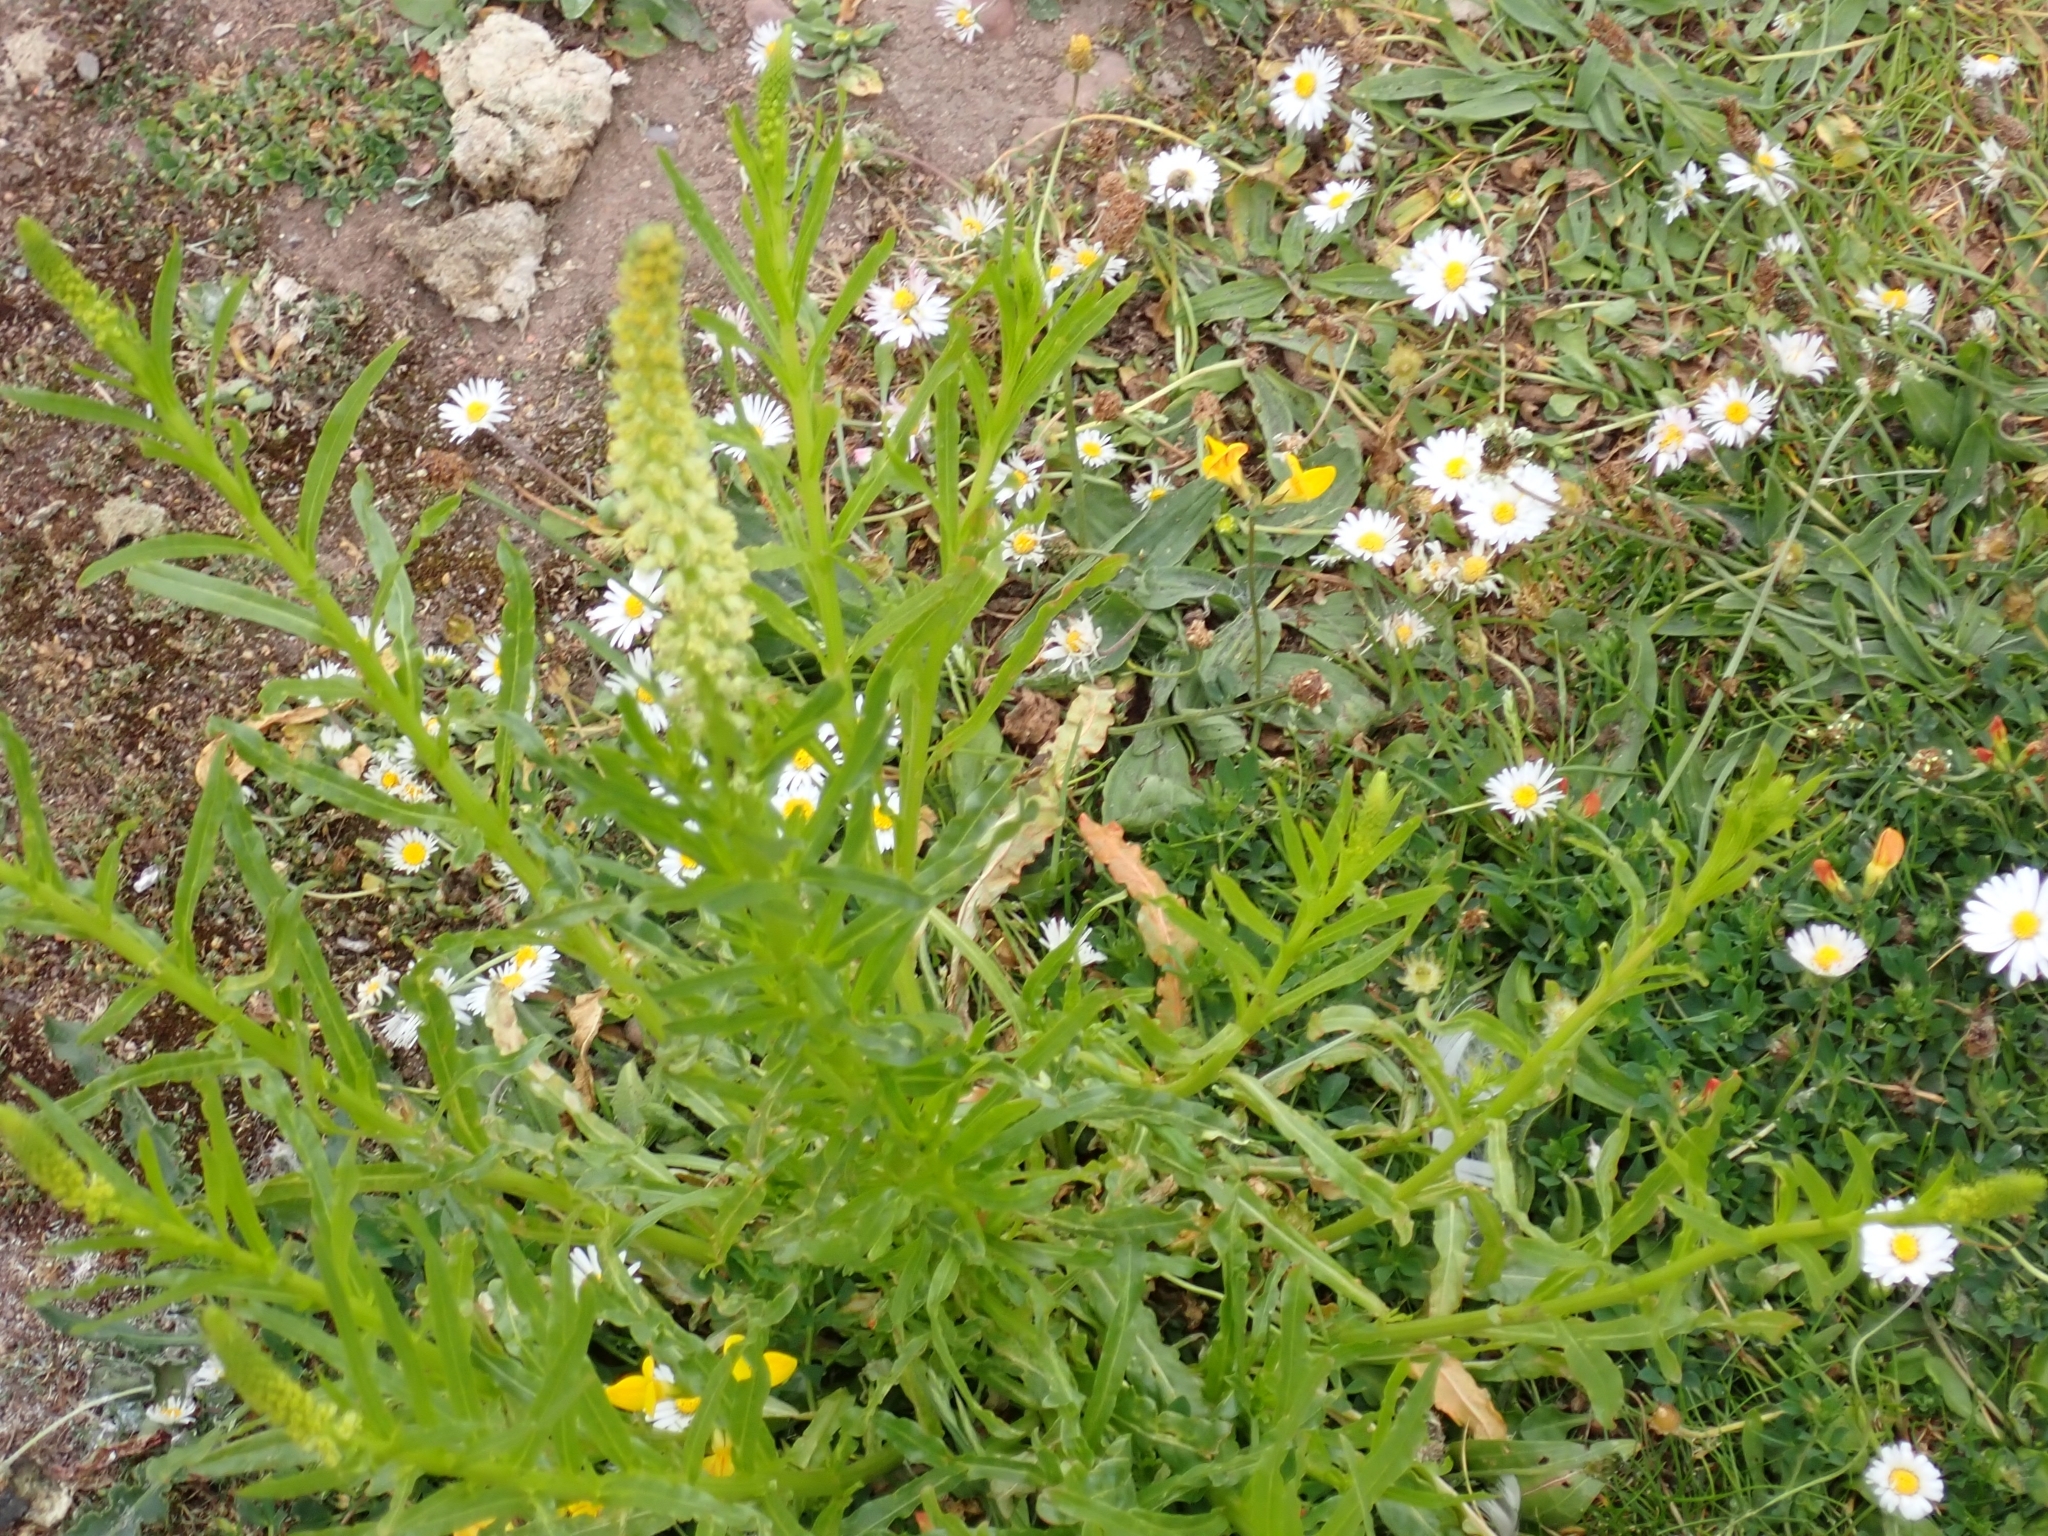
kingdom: Plantae
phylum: Tracheophyta
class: Magnoliopsida
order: Brassicales
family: Resedaceae
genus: Reseda
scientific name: Reseda luteola
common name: Weld
